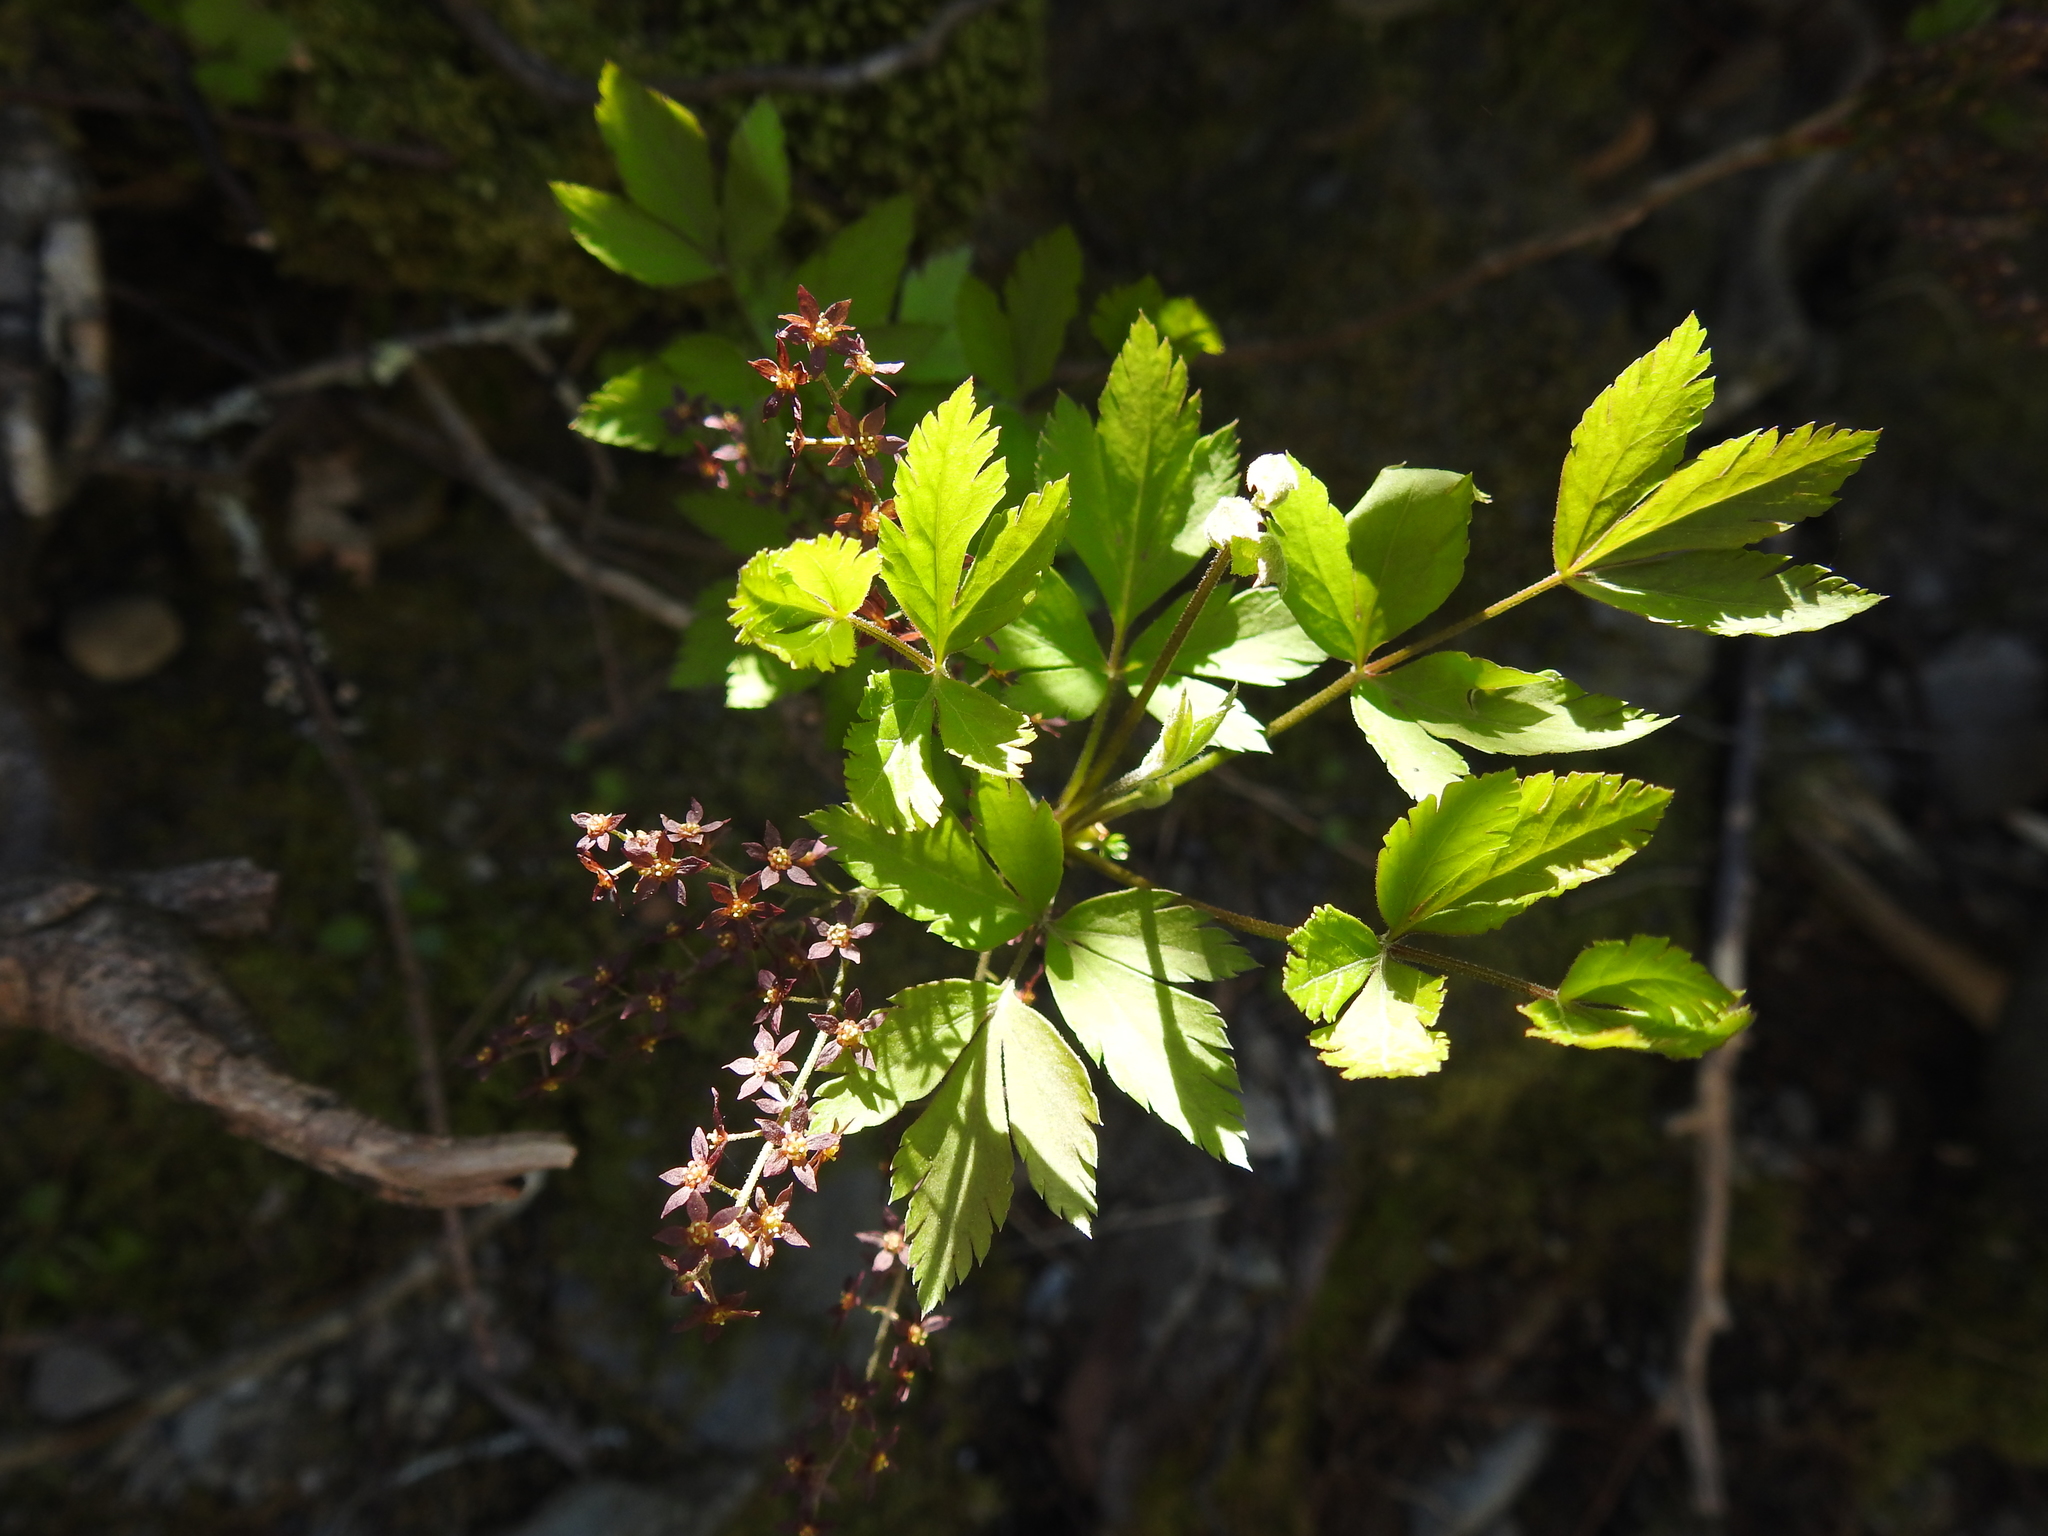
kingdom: Plantae
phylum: Tracheophyta
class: Magnoliopsida
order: Ranunculales
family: Ranunculaceae
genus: Xanthorhiza
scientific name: Xanthorhiza simplicissima
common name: Yellowroot
